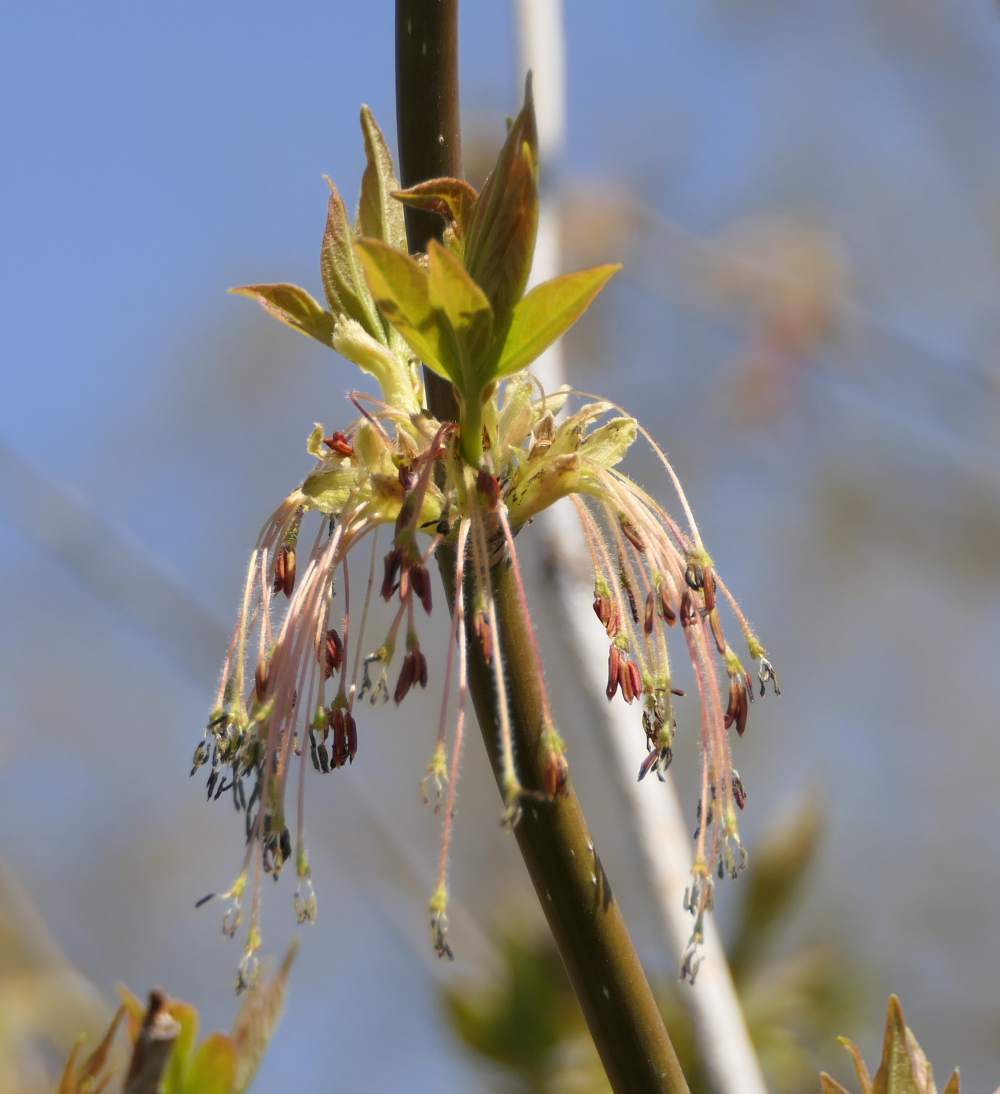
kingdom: Plantae
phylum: Tracheophyta
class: Magnoliopsida
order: Sapindales
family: Sapindaceae
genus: Acer
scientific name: Acer negundo
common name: Ashleaf maple
